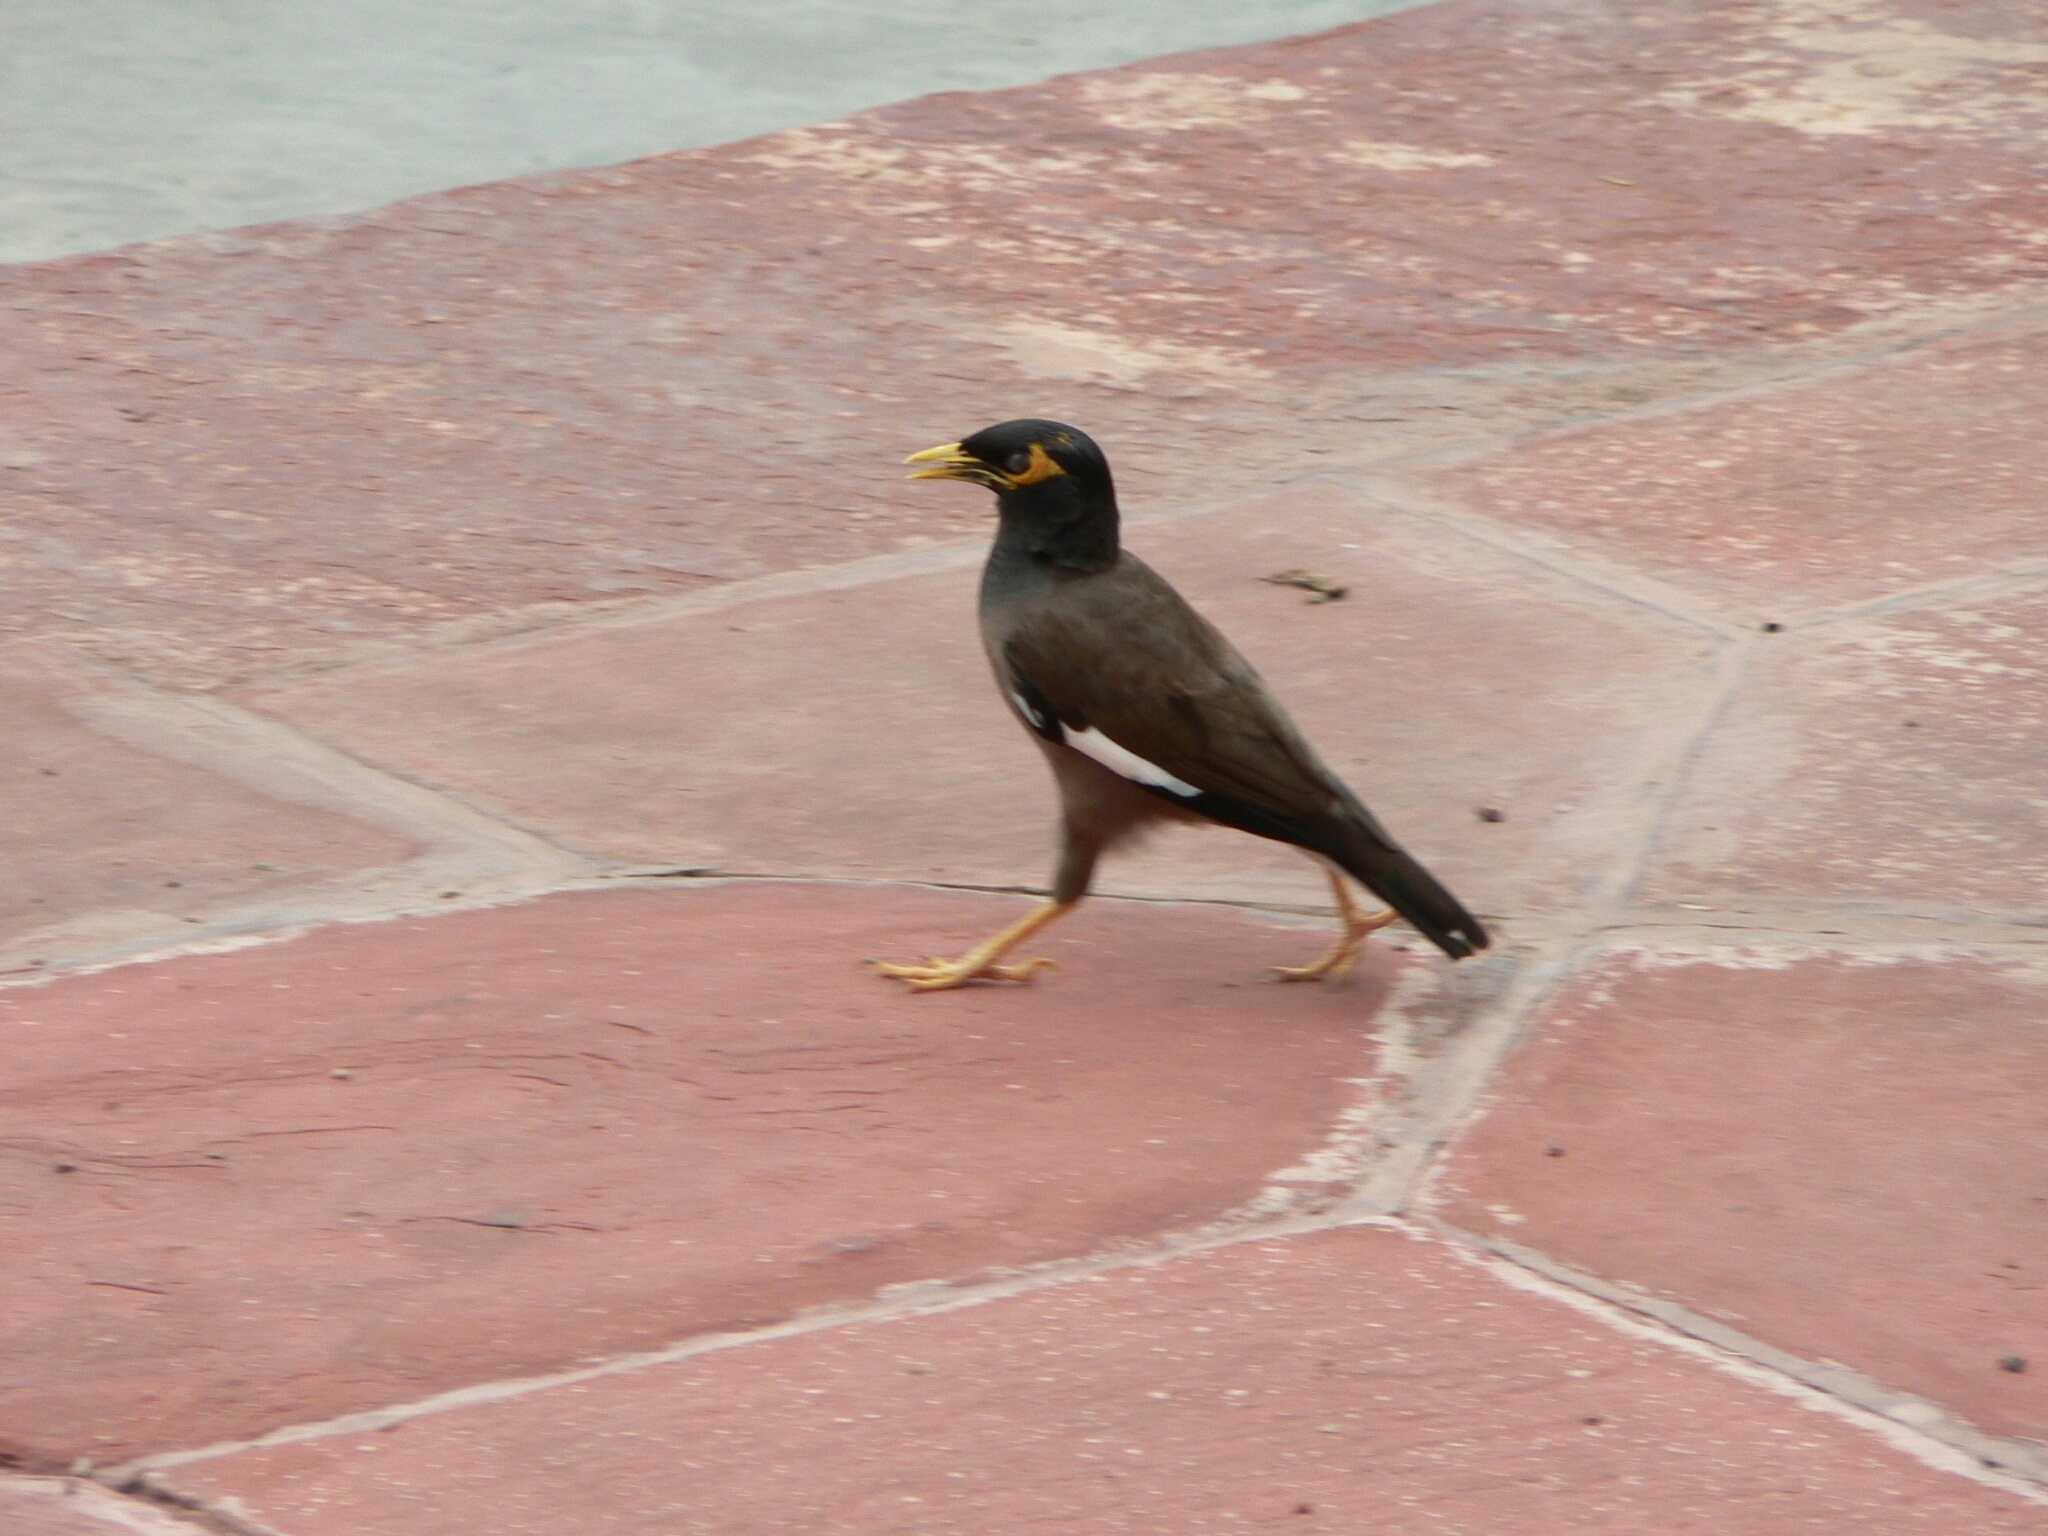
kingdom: Animalia
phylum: Chordata
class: Aves
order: Passeriformes
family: Sturnidae
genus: Acridotheres
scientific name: Acridotheres tristis
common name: Common myna
